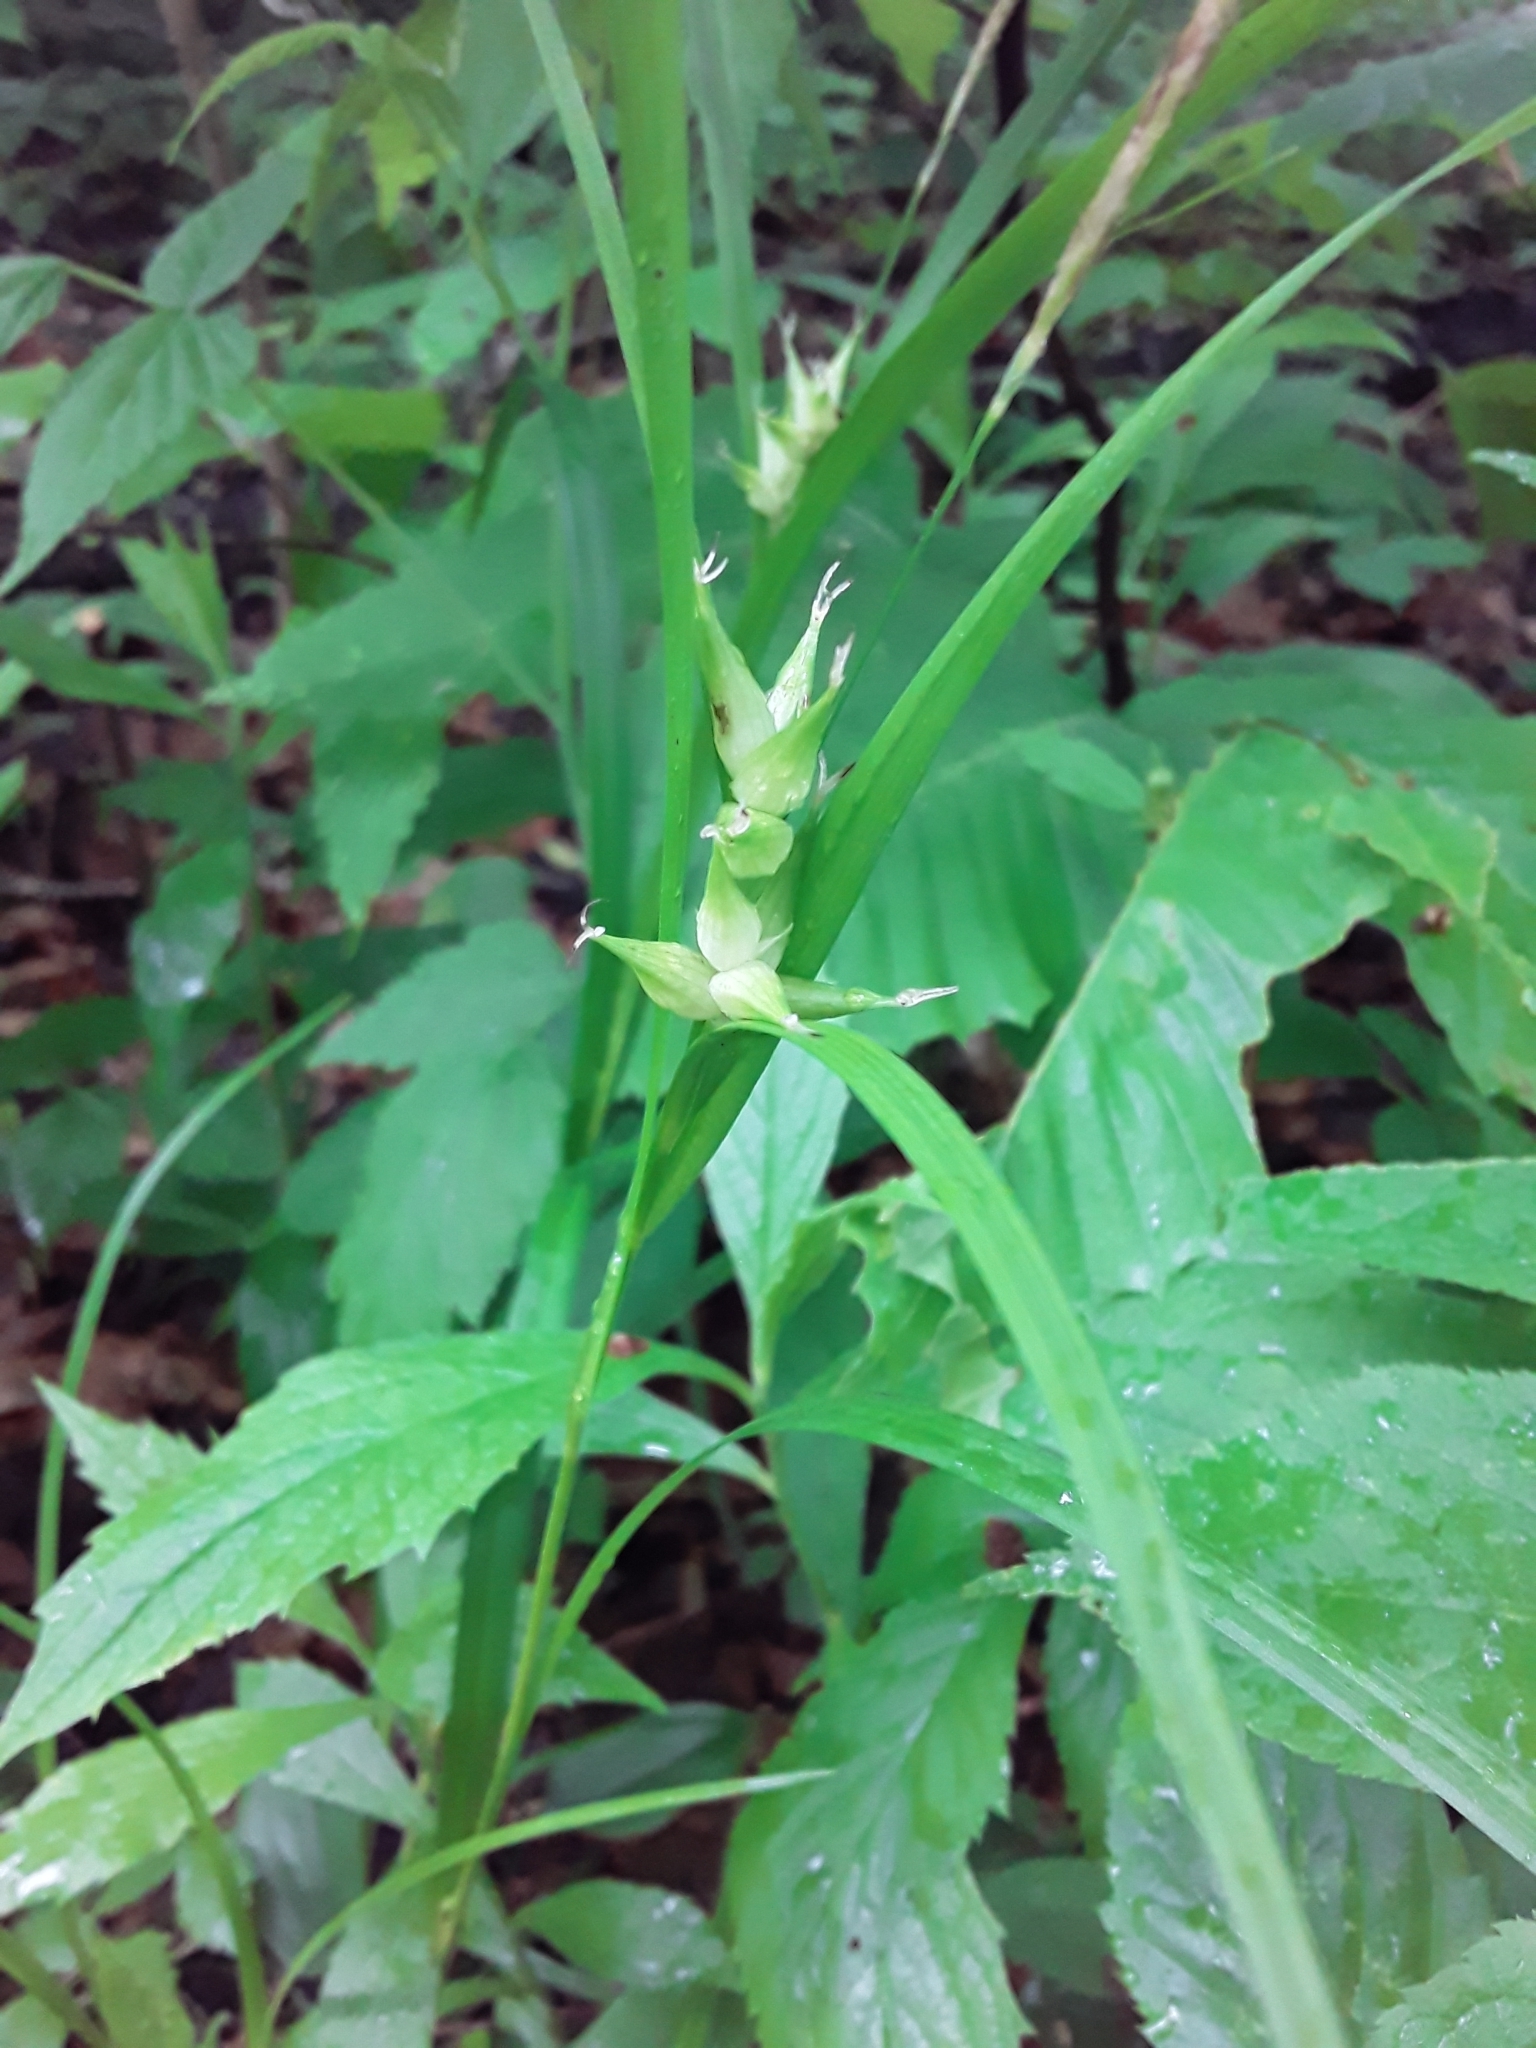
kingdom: Plantae
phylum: Tracheophyta
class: Liliopsida
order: Poales
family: Cyperaceae
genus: Carex
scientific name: Carex intumescens
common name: Greater bladder sedge
